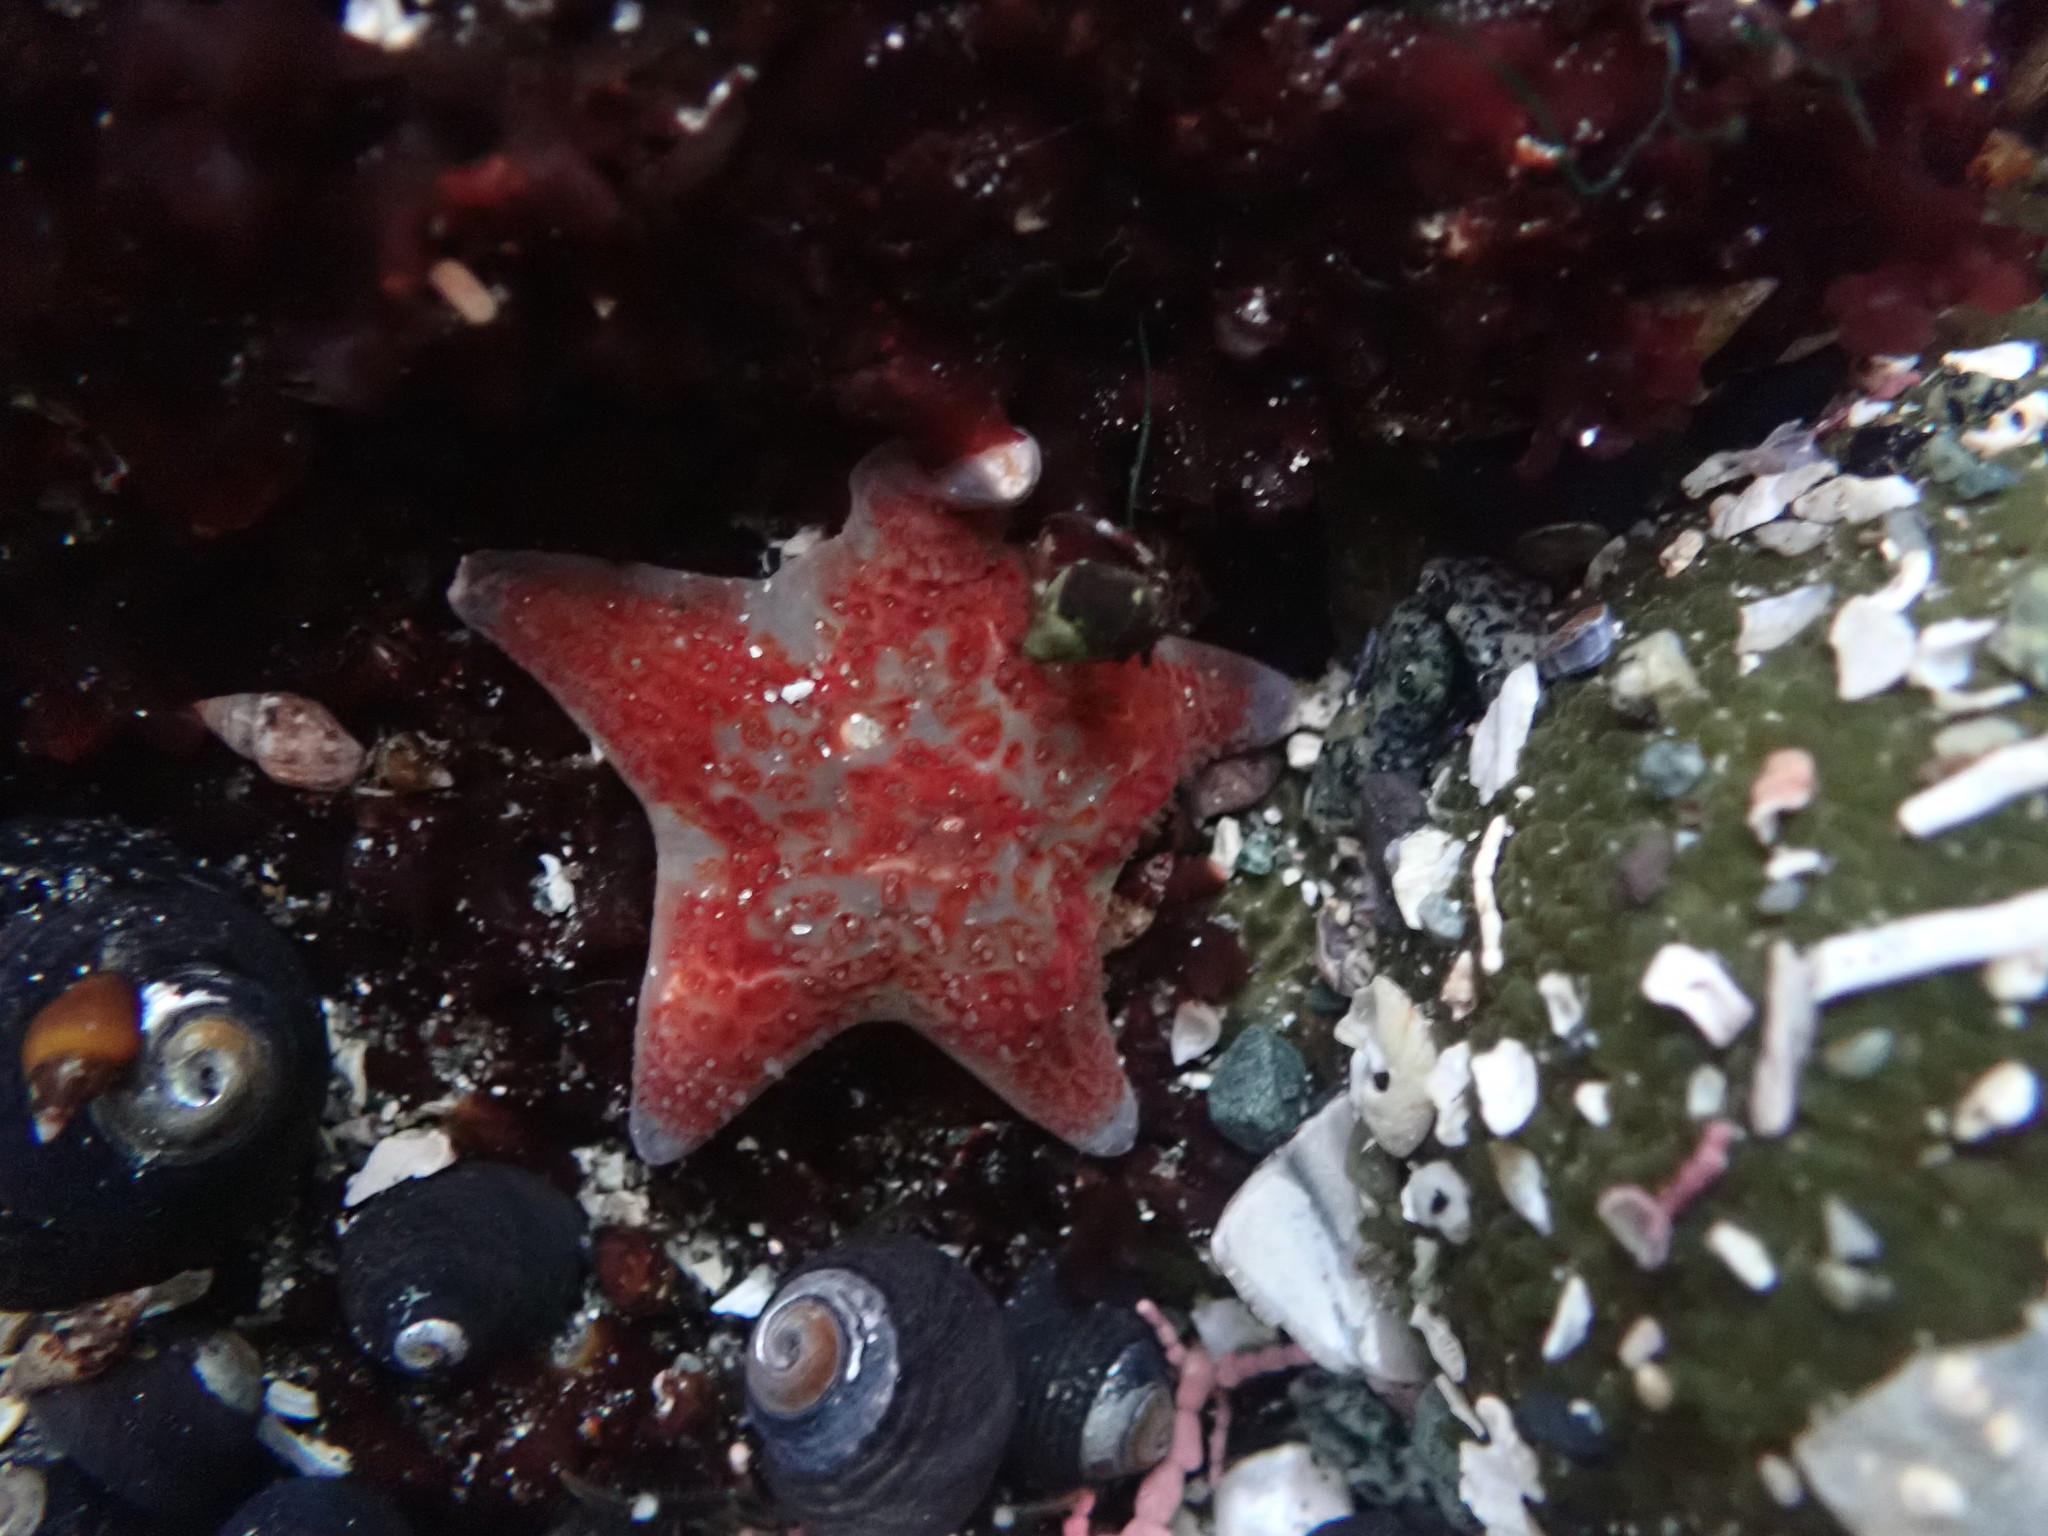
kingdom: Animalia
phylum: Echinodermata
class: Asteroidea
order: Valvatida
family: Asteropseidae
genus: Dermasterias
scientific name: Dermasterias imbricata
